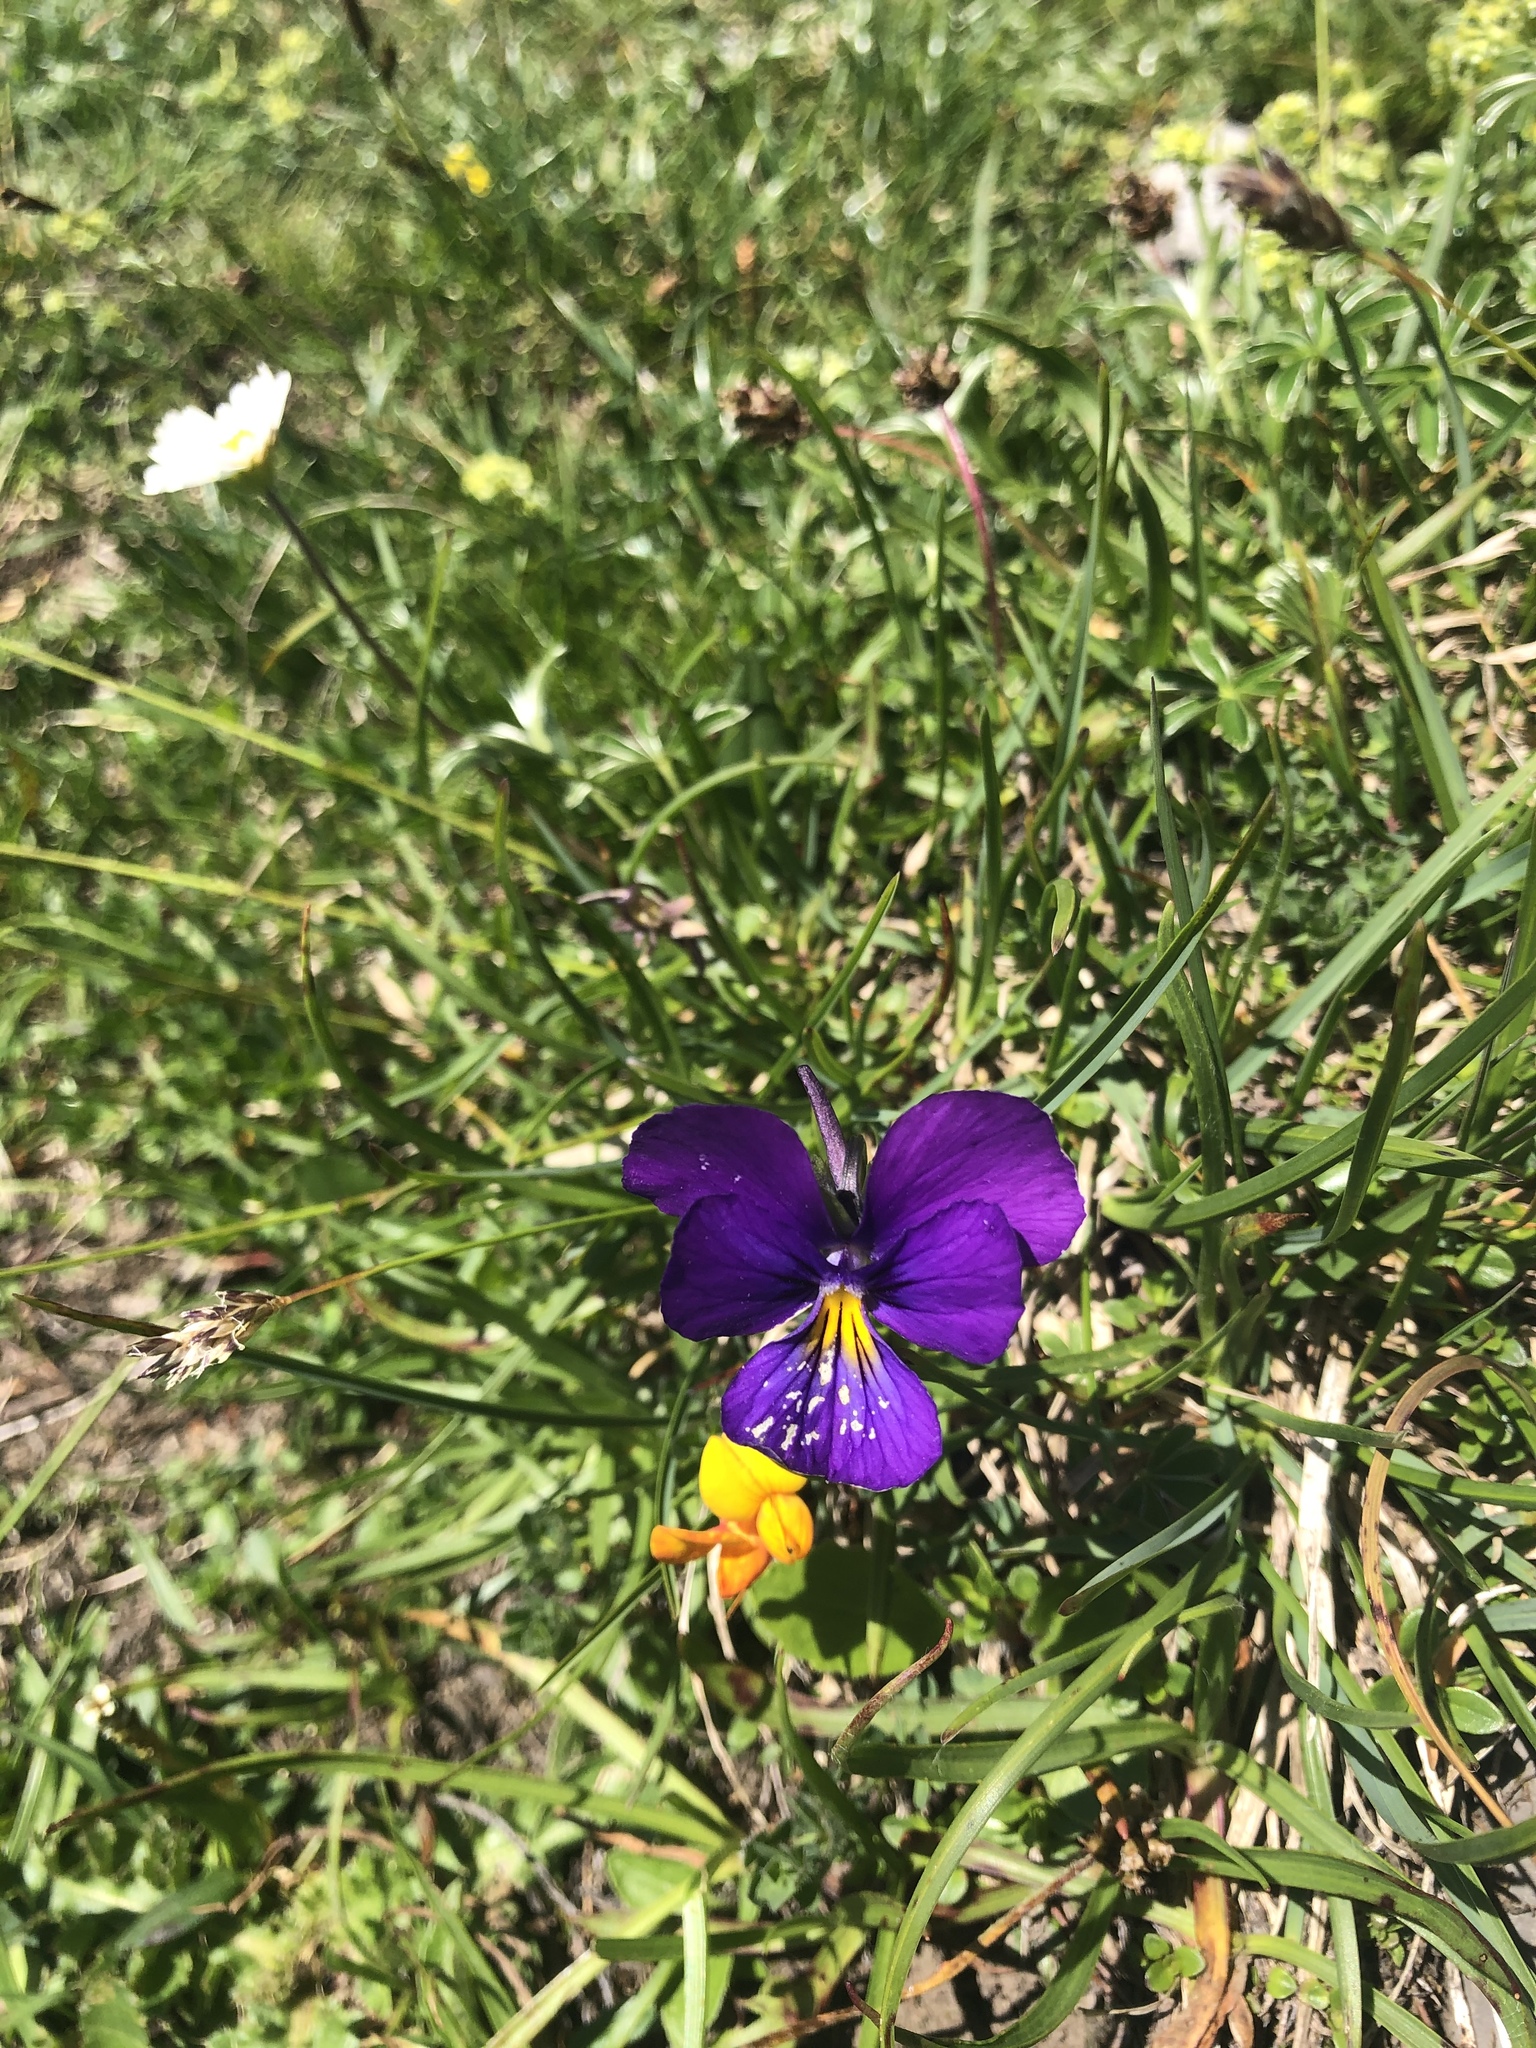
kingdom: Plantae
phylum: Tracheophyta
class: Magnoliopsida
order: Malpighiales
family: Violaceae
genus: Viola
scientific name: Viola tricolor
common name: Pansy
